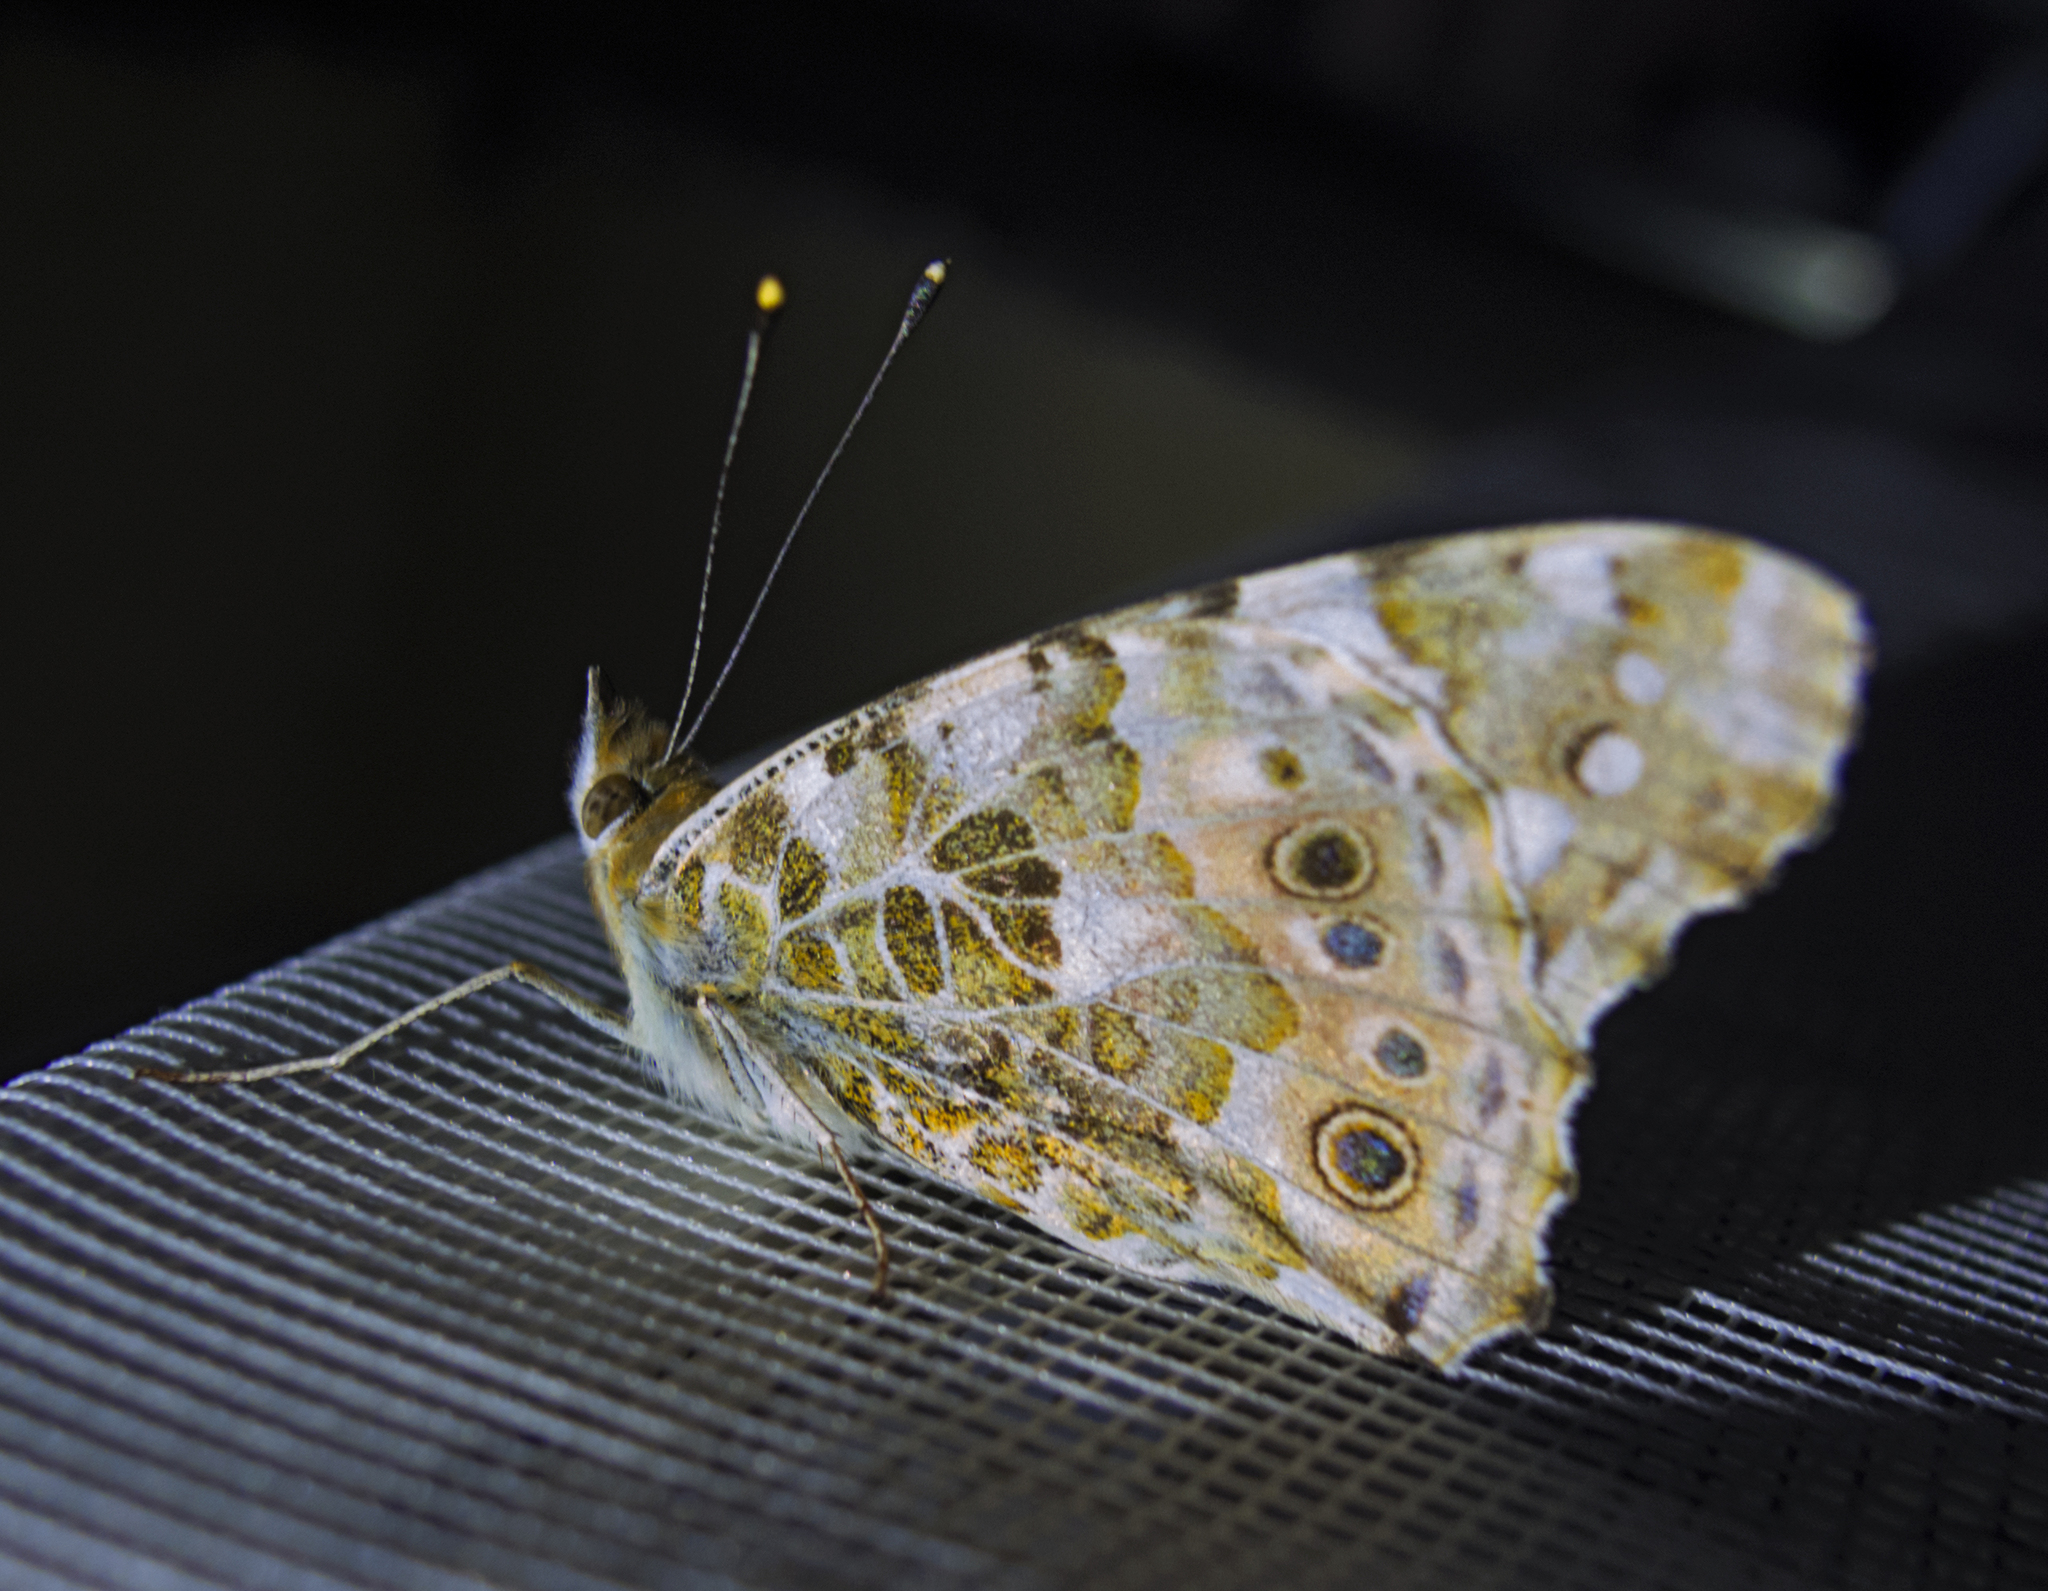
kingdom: Animalia
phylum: Arthropoda
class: Insecta
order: Lepidoptera
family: Nymphalidae
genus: Vanessa
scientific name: Vanessa cardui
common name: Painted lady
